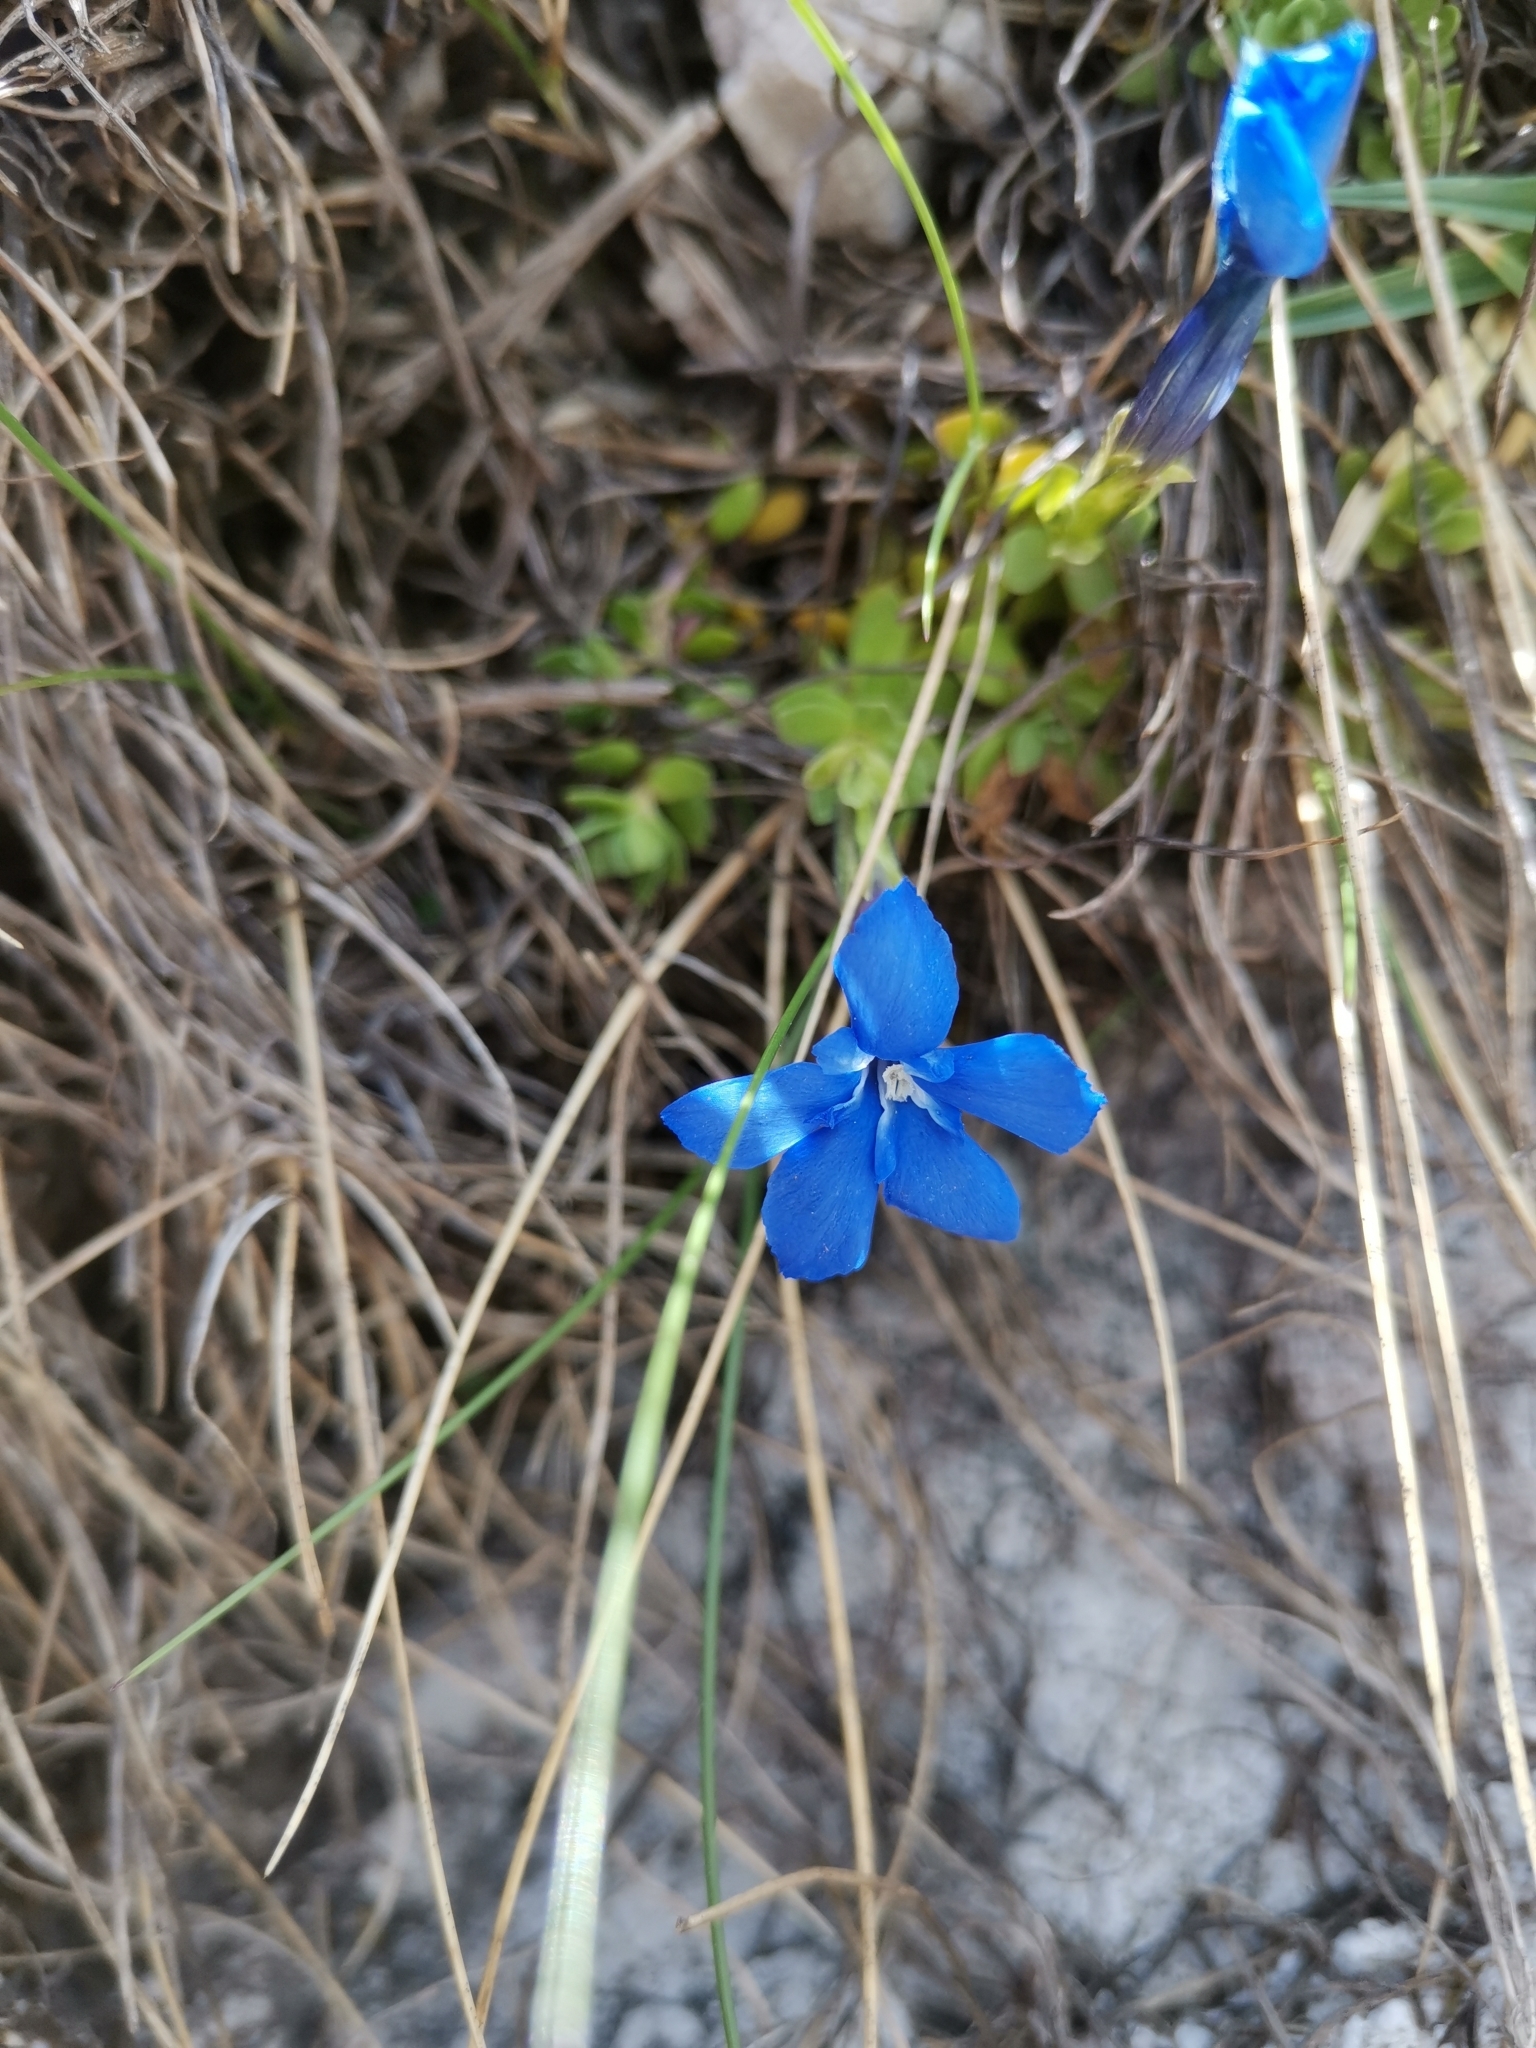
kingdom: Plantae
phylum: Tracheophyta
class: Magnoliopsida
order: Gentianales
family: Gentianaceae
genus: Gentiana
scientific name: Gentiana terglouensis
